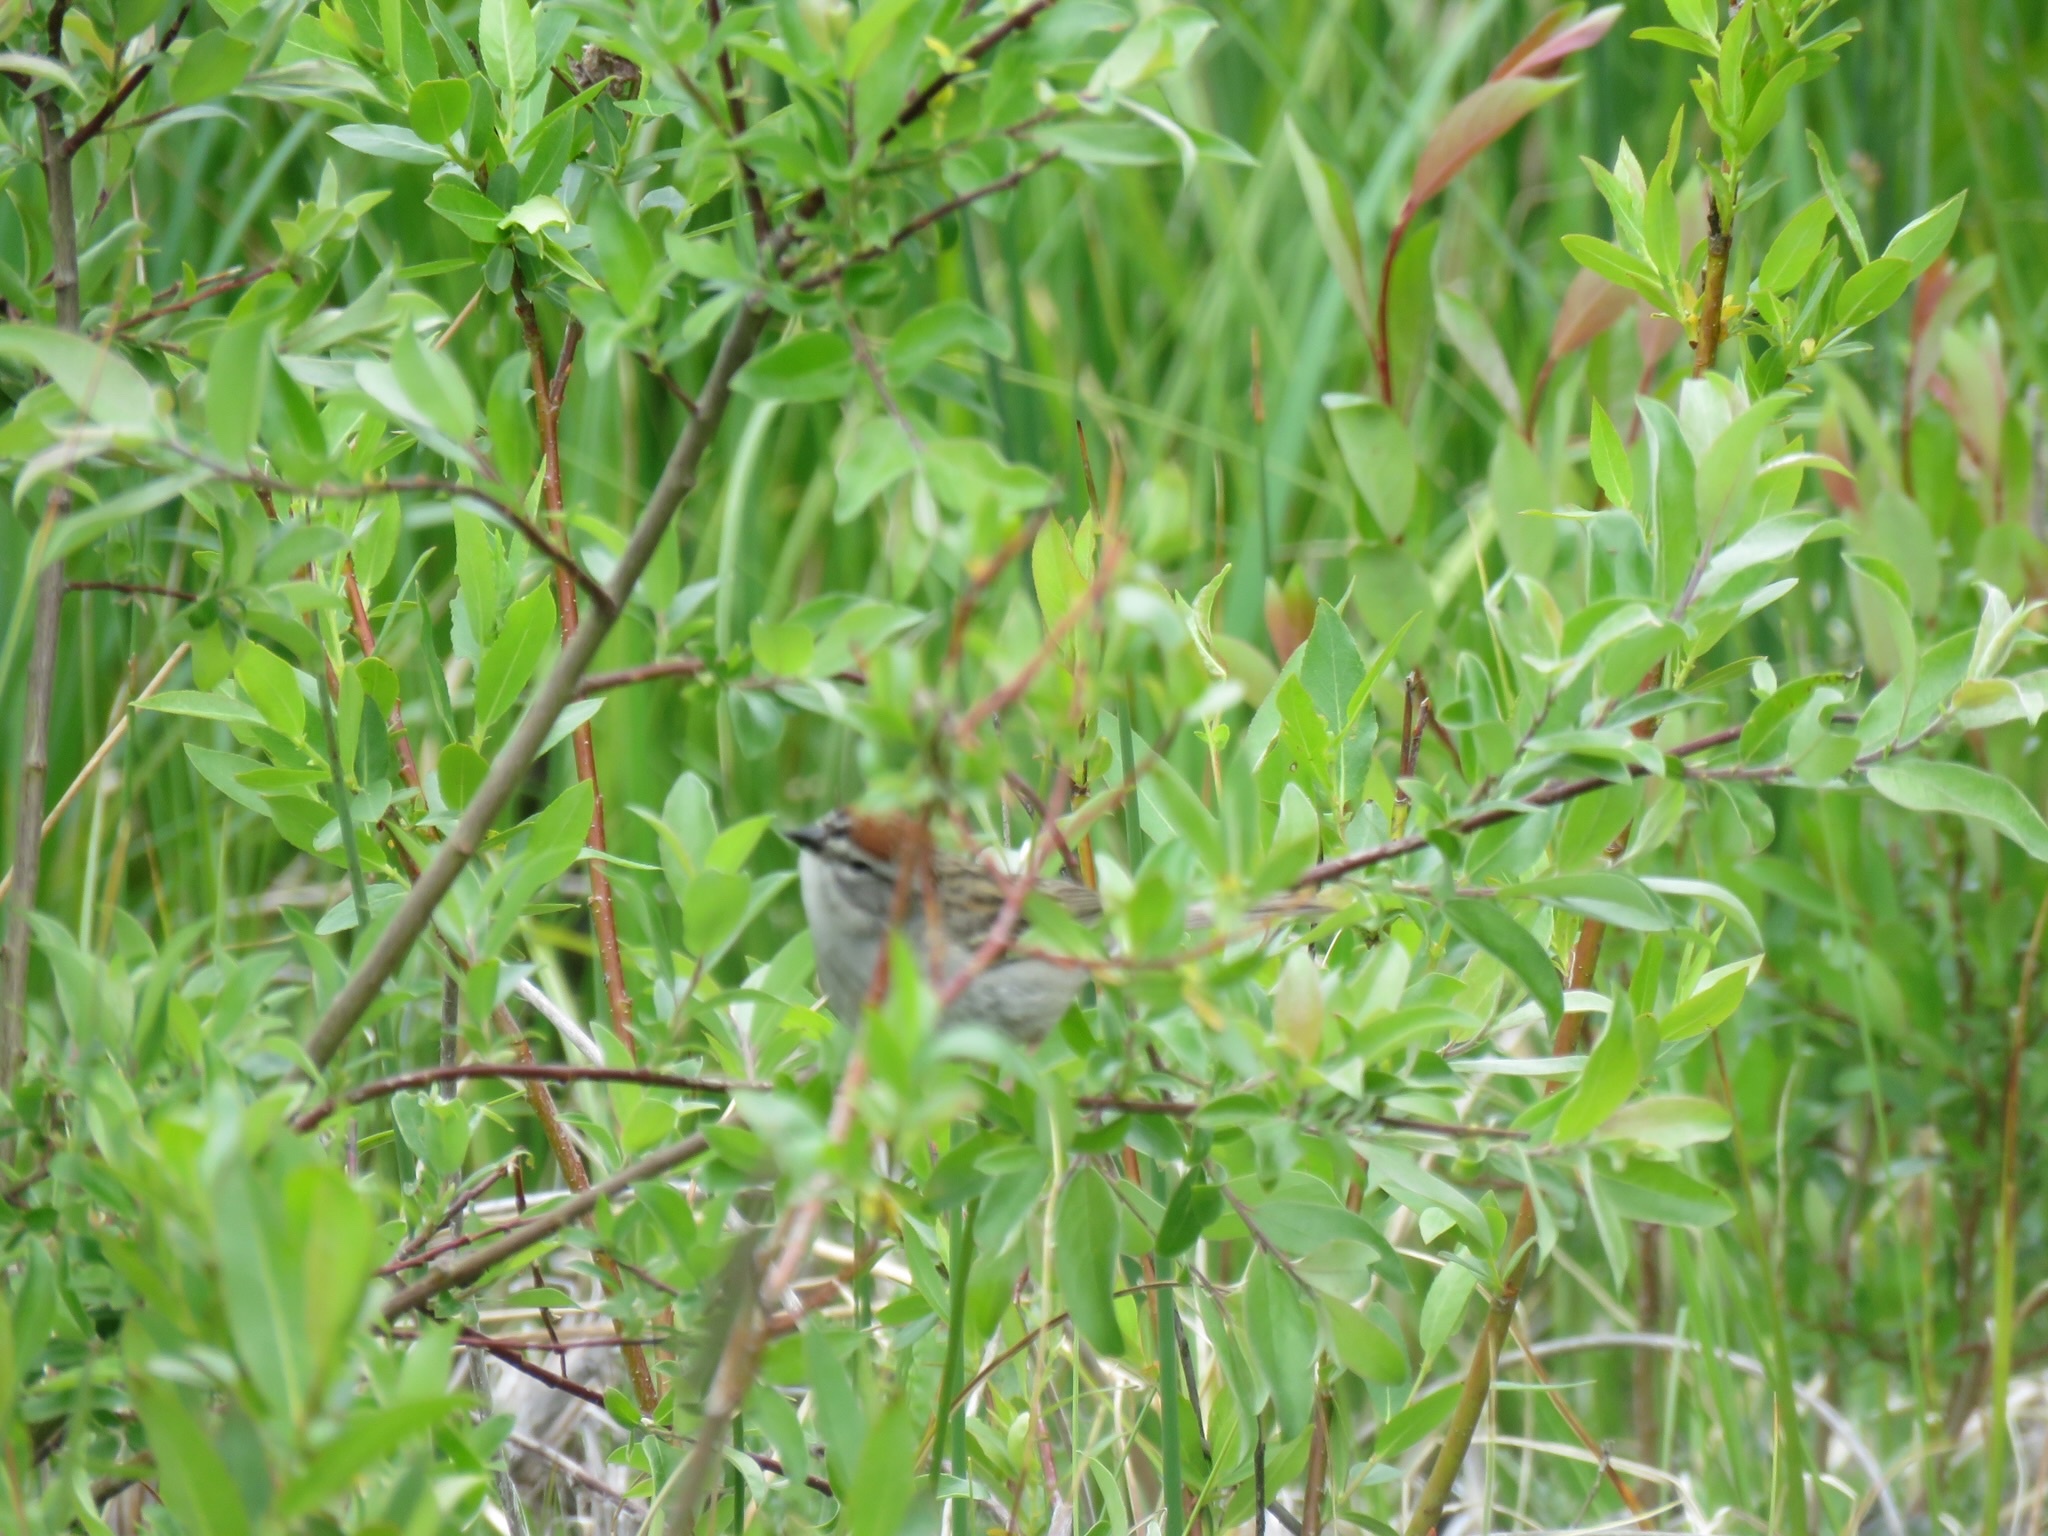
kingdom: Animalia
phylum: Chordata
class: Aves
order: Passeriformes
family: Passerellidae
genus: Spizella
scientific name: Spizella passerina
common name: Chipping sparrow
